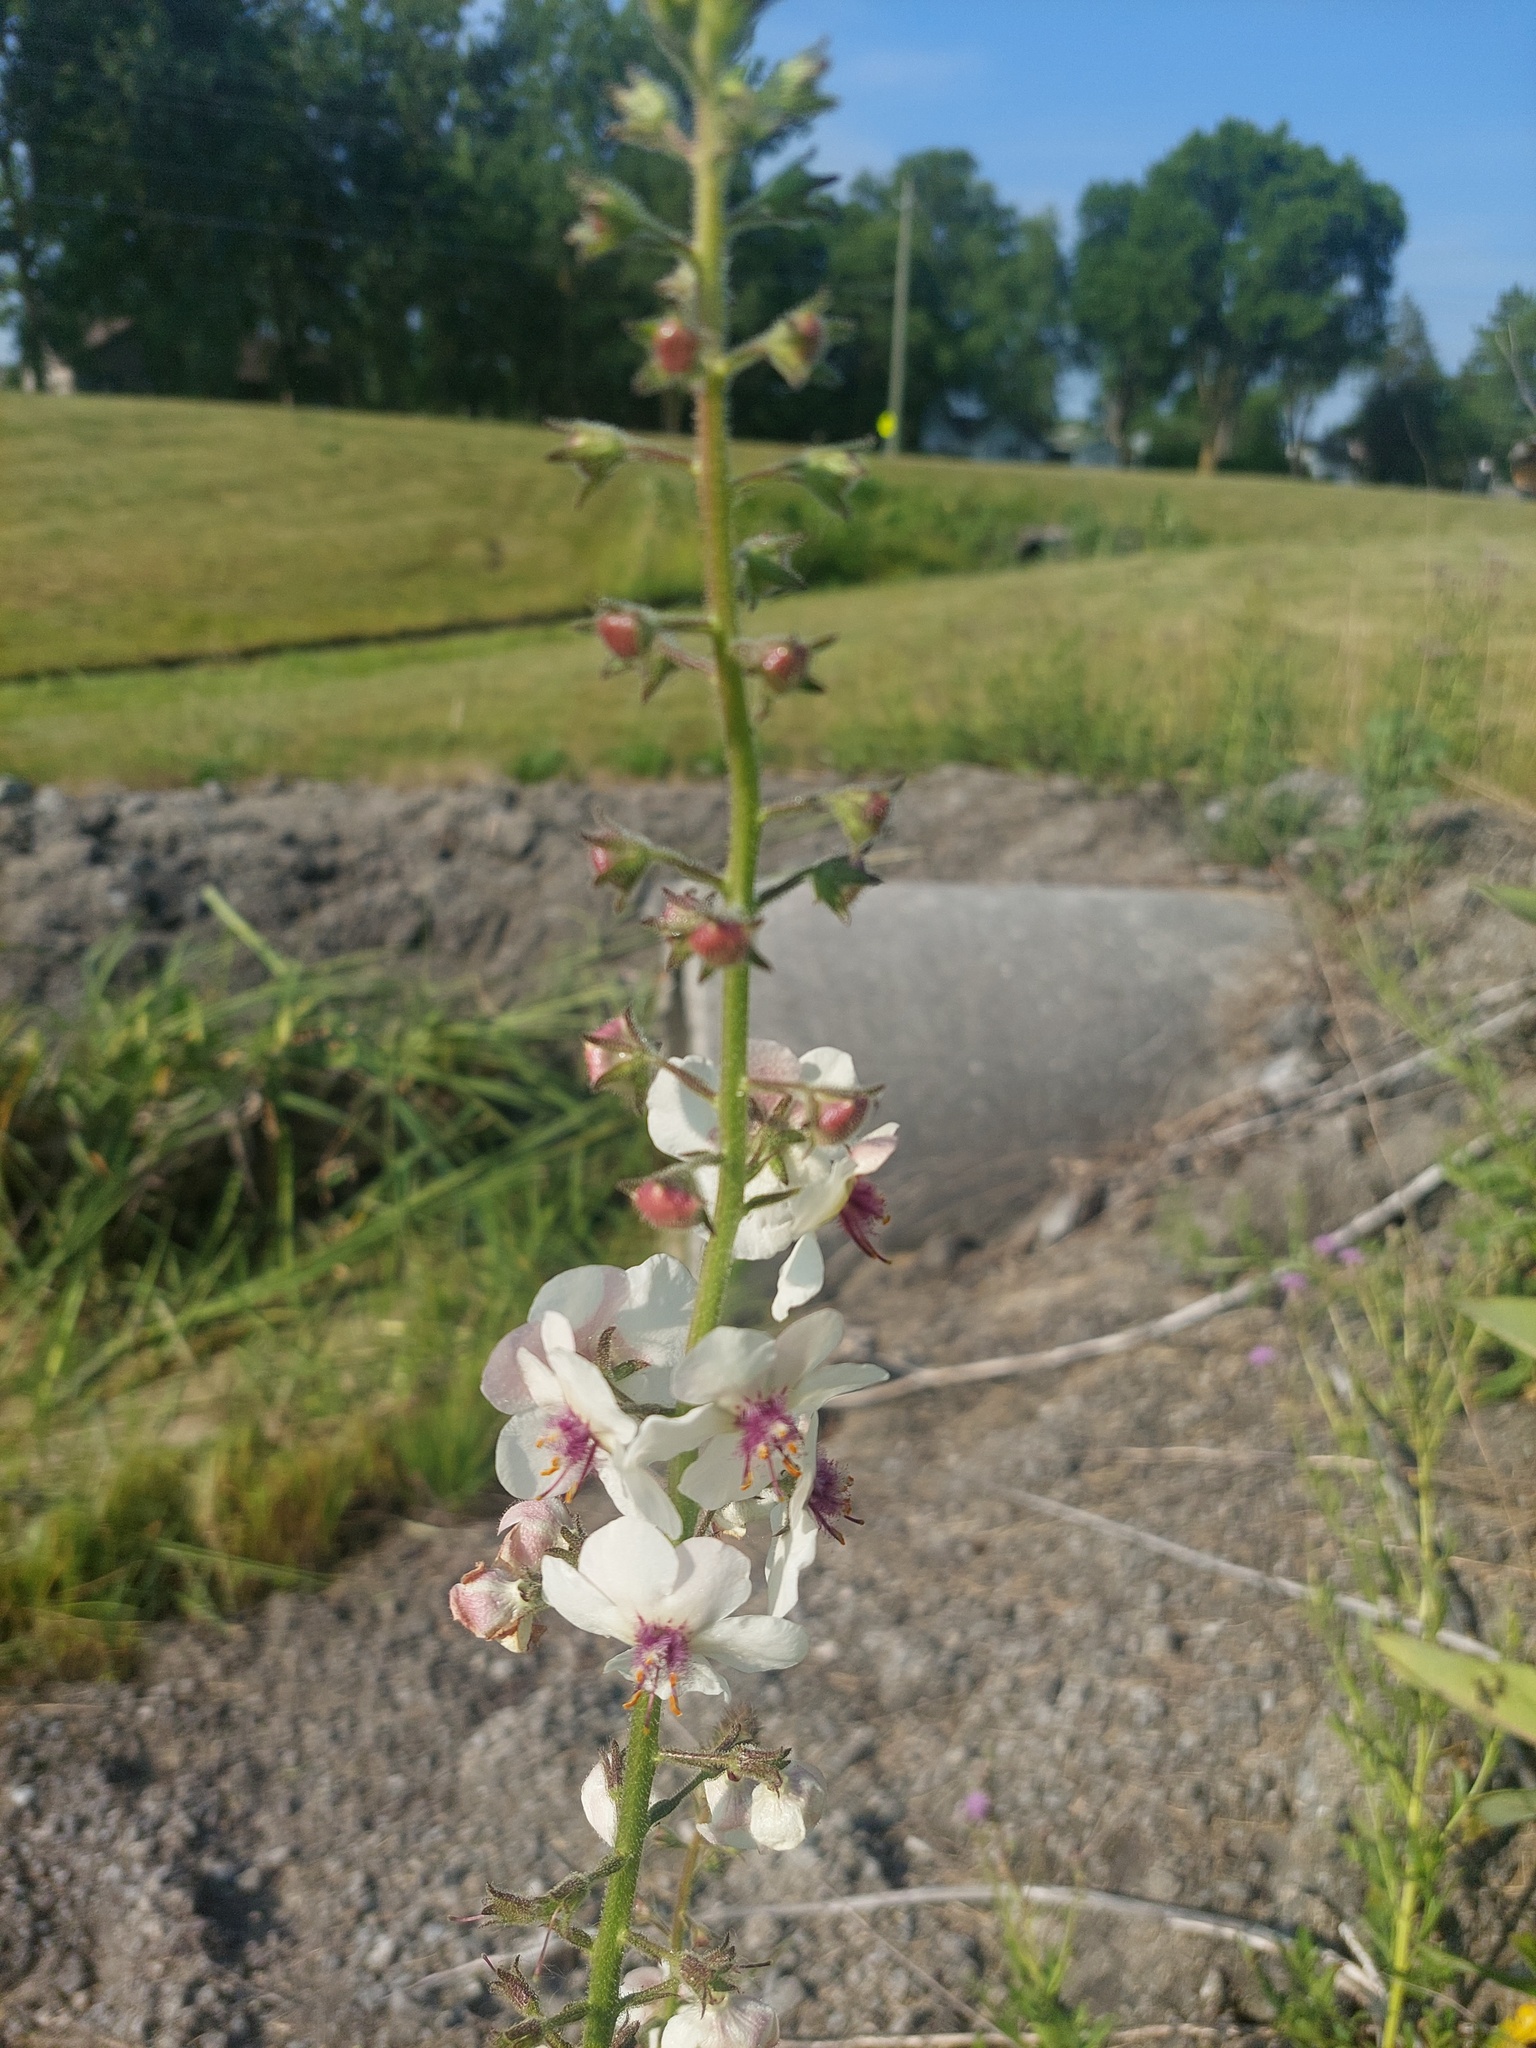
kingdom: Plantae
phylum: Tracheophyta
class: Magnoliopsida
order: Lamiales
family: Scrophulariaceae
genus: Verbascum
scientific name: Verbascum blattaria
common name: Moth mullein
